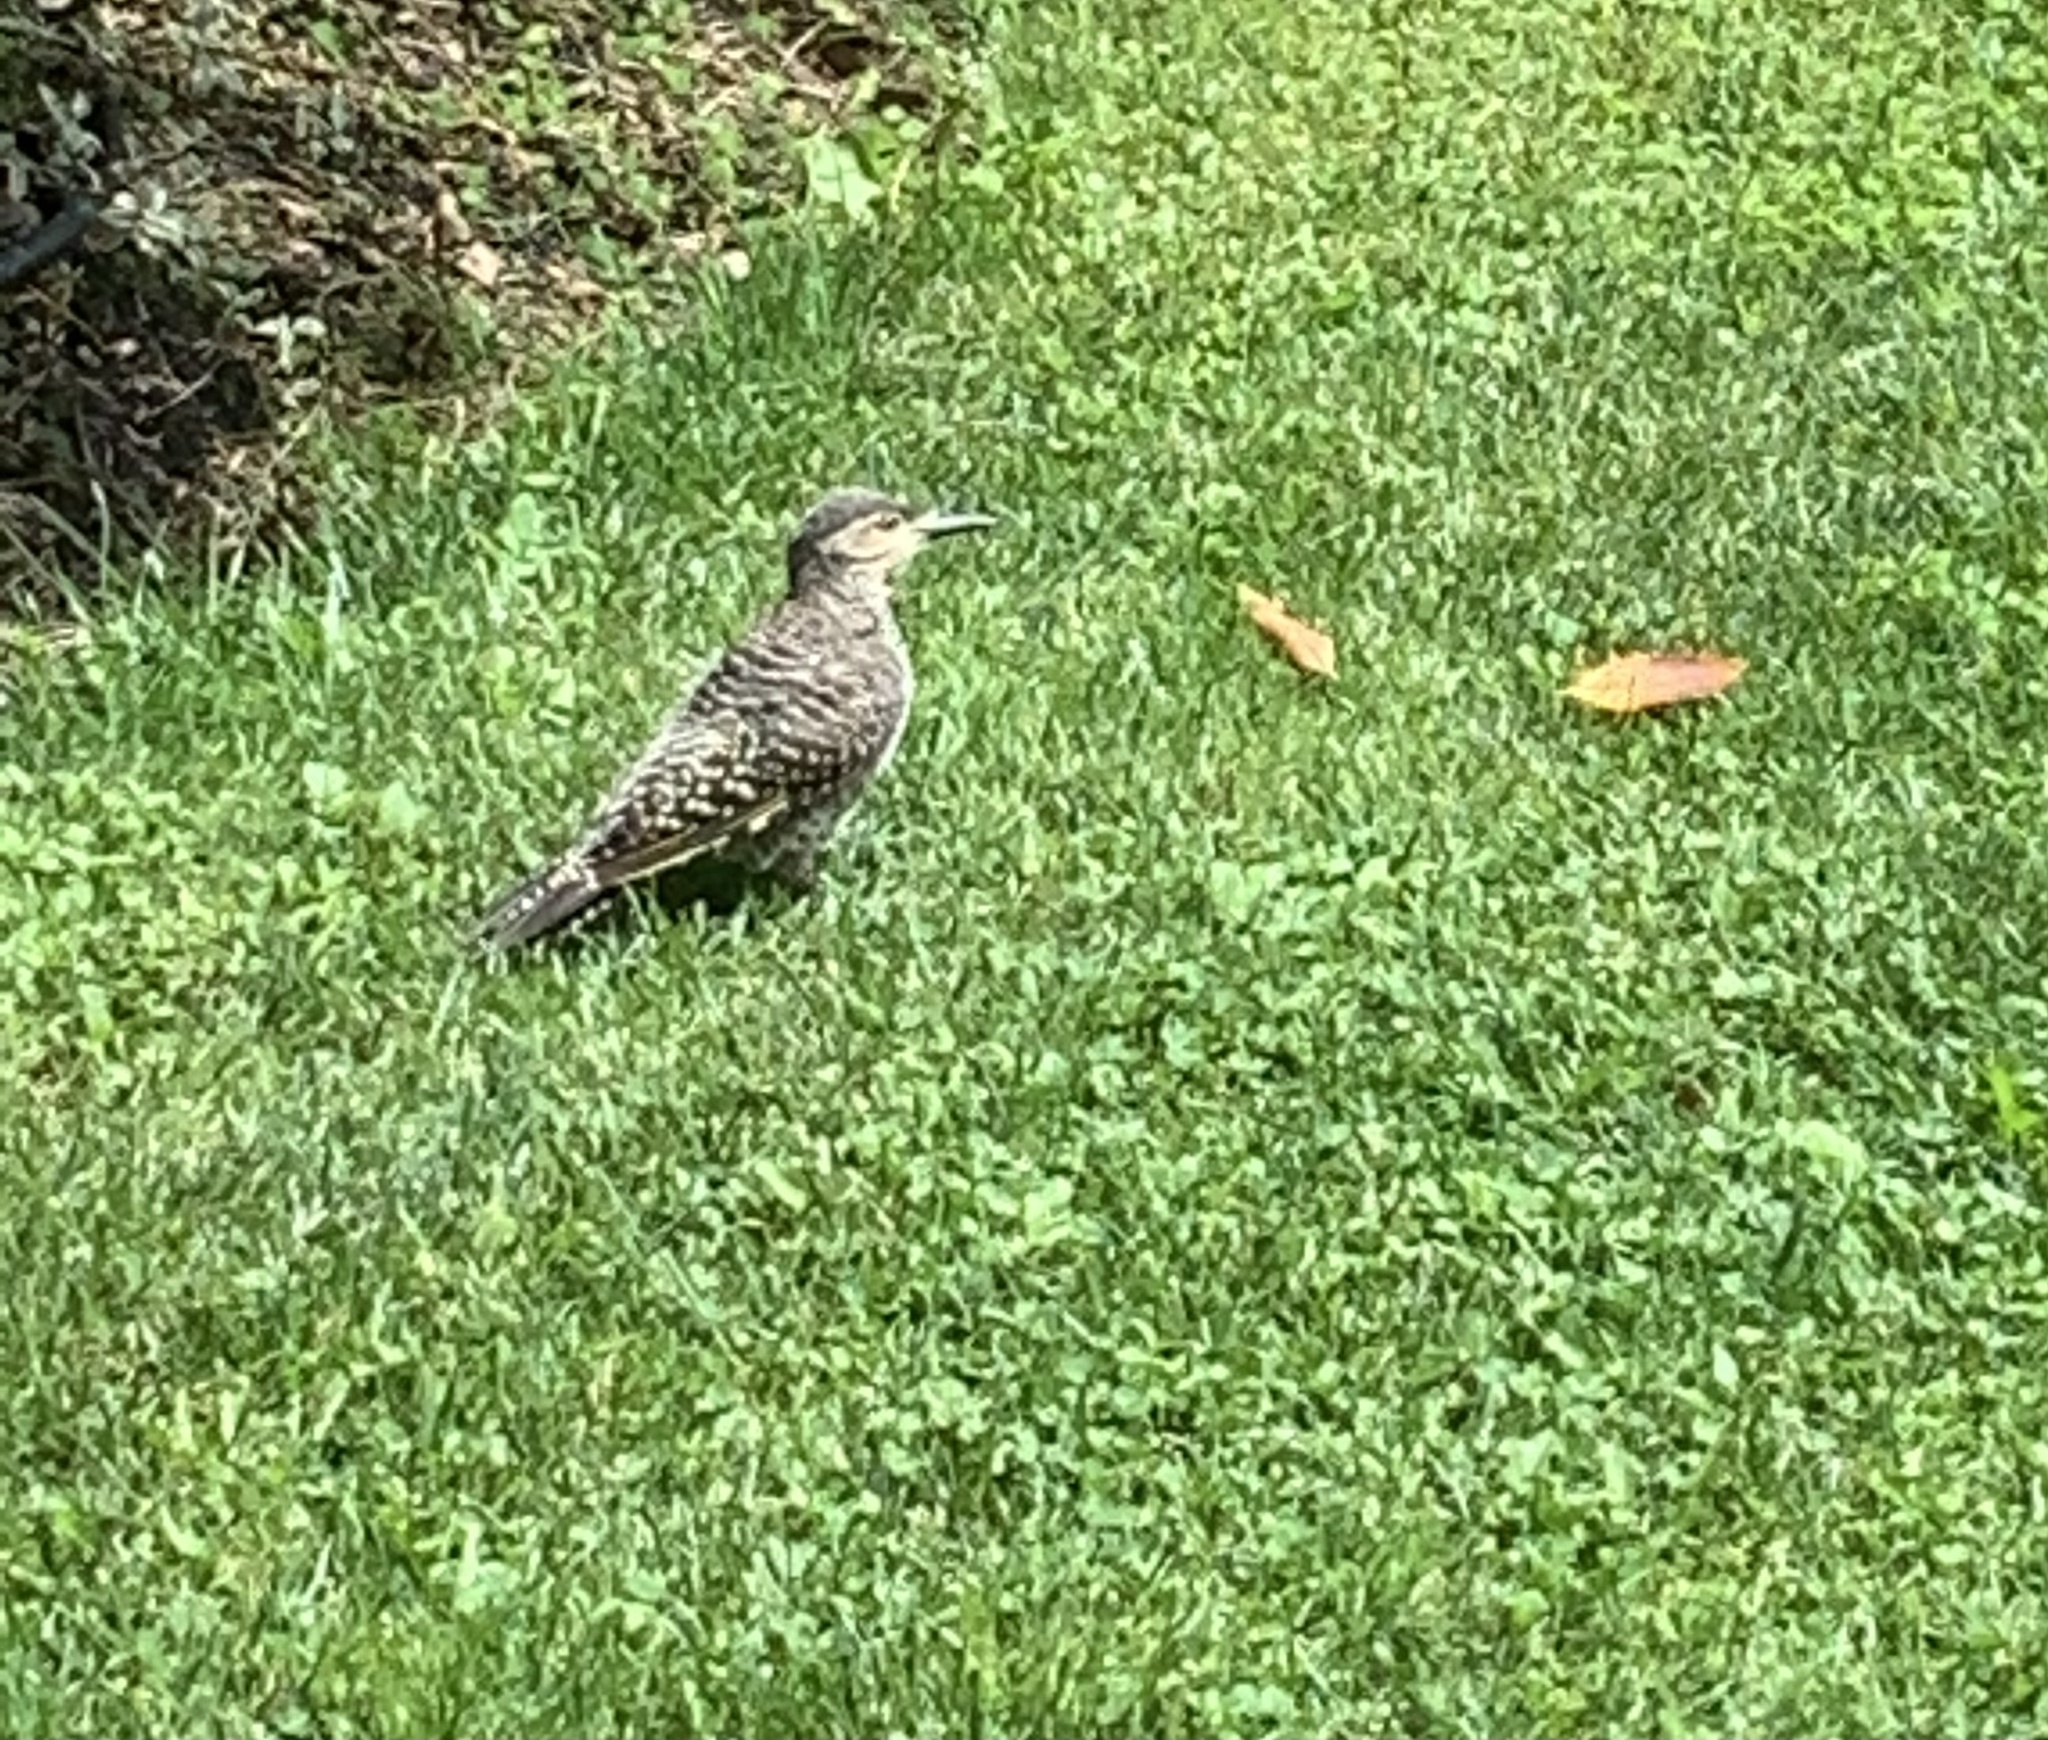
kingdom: Animalia
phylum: Chordata
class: Aves
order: Piciformes
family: Picidae
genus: Colaptes
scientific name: Colaptes pitius
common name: Chilean flicker
